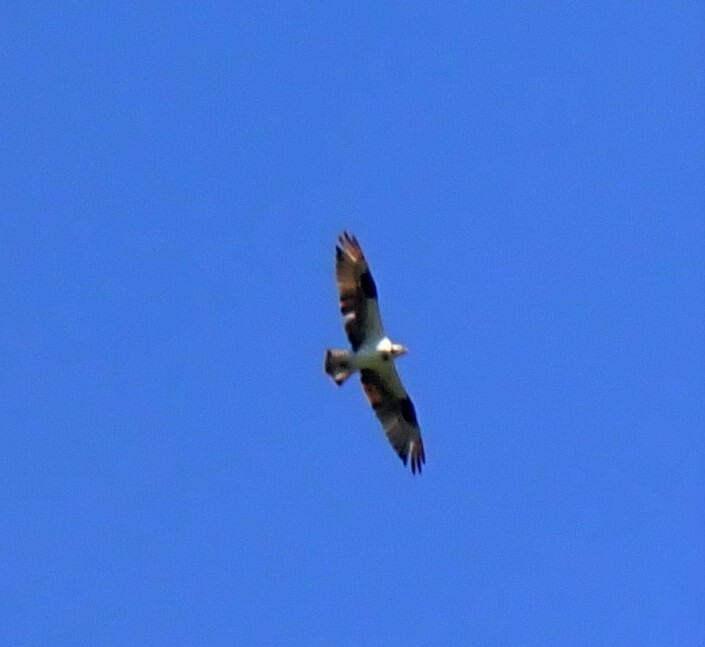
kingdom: Animalia
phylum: Chordata
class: Aves
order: Accipitriformes
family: Pandionidae
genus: Pandion
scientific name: Pandion haliaetus
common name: Osprey
